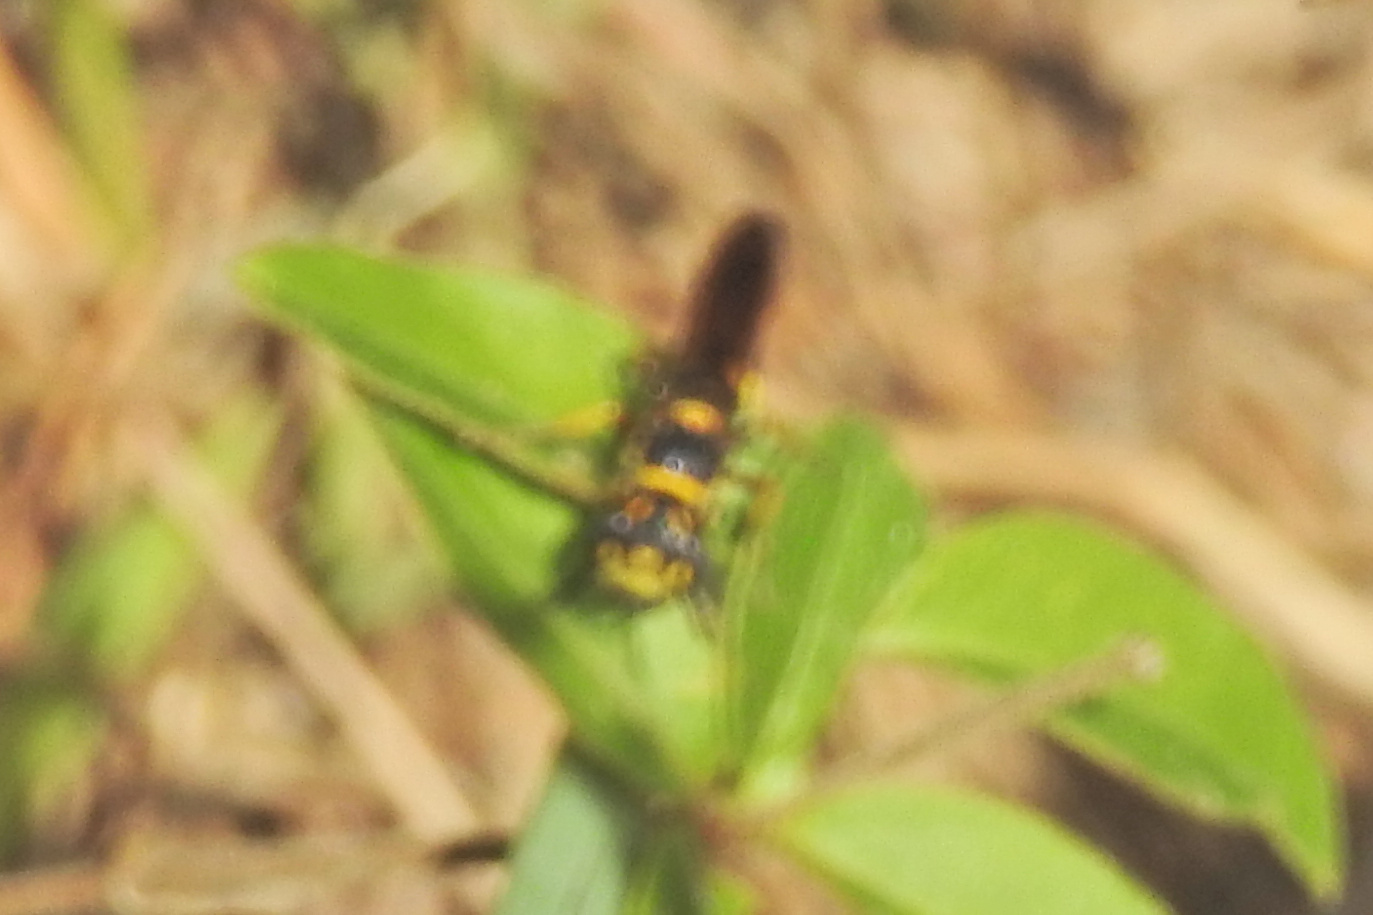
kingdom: Animalia
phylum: Arthropoda
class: Insecta
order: Hymenoptera
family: Crabronidae
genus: Philanthus
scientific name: Philanthus gibbosus
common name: Humped beewolf
